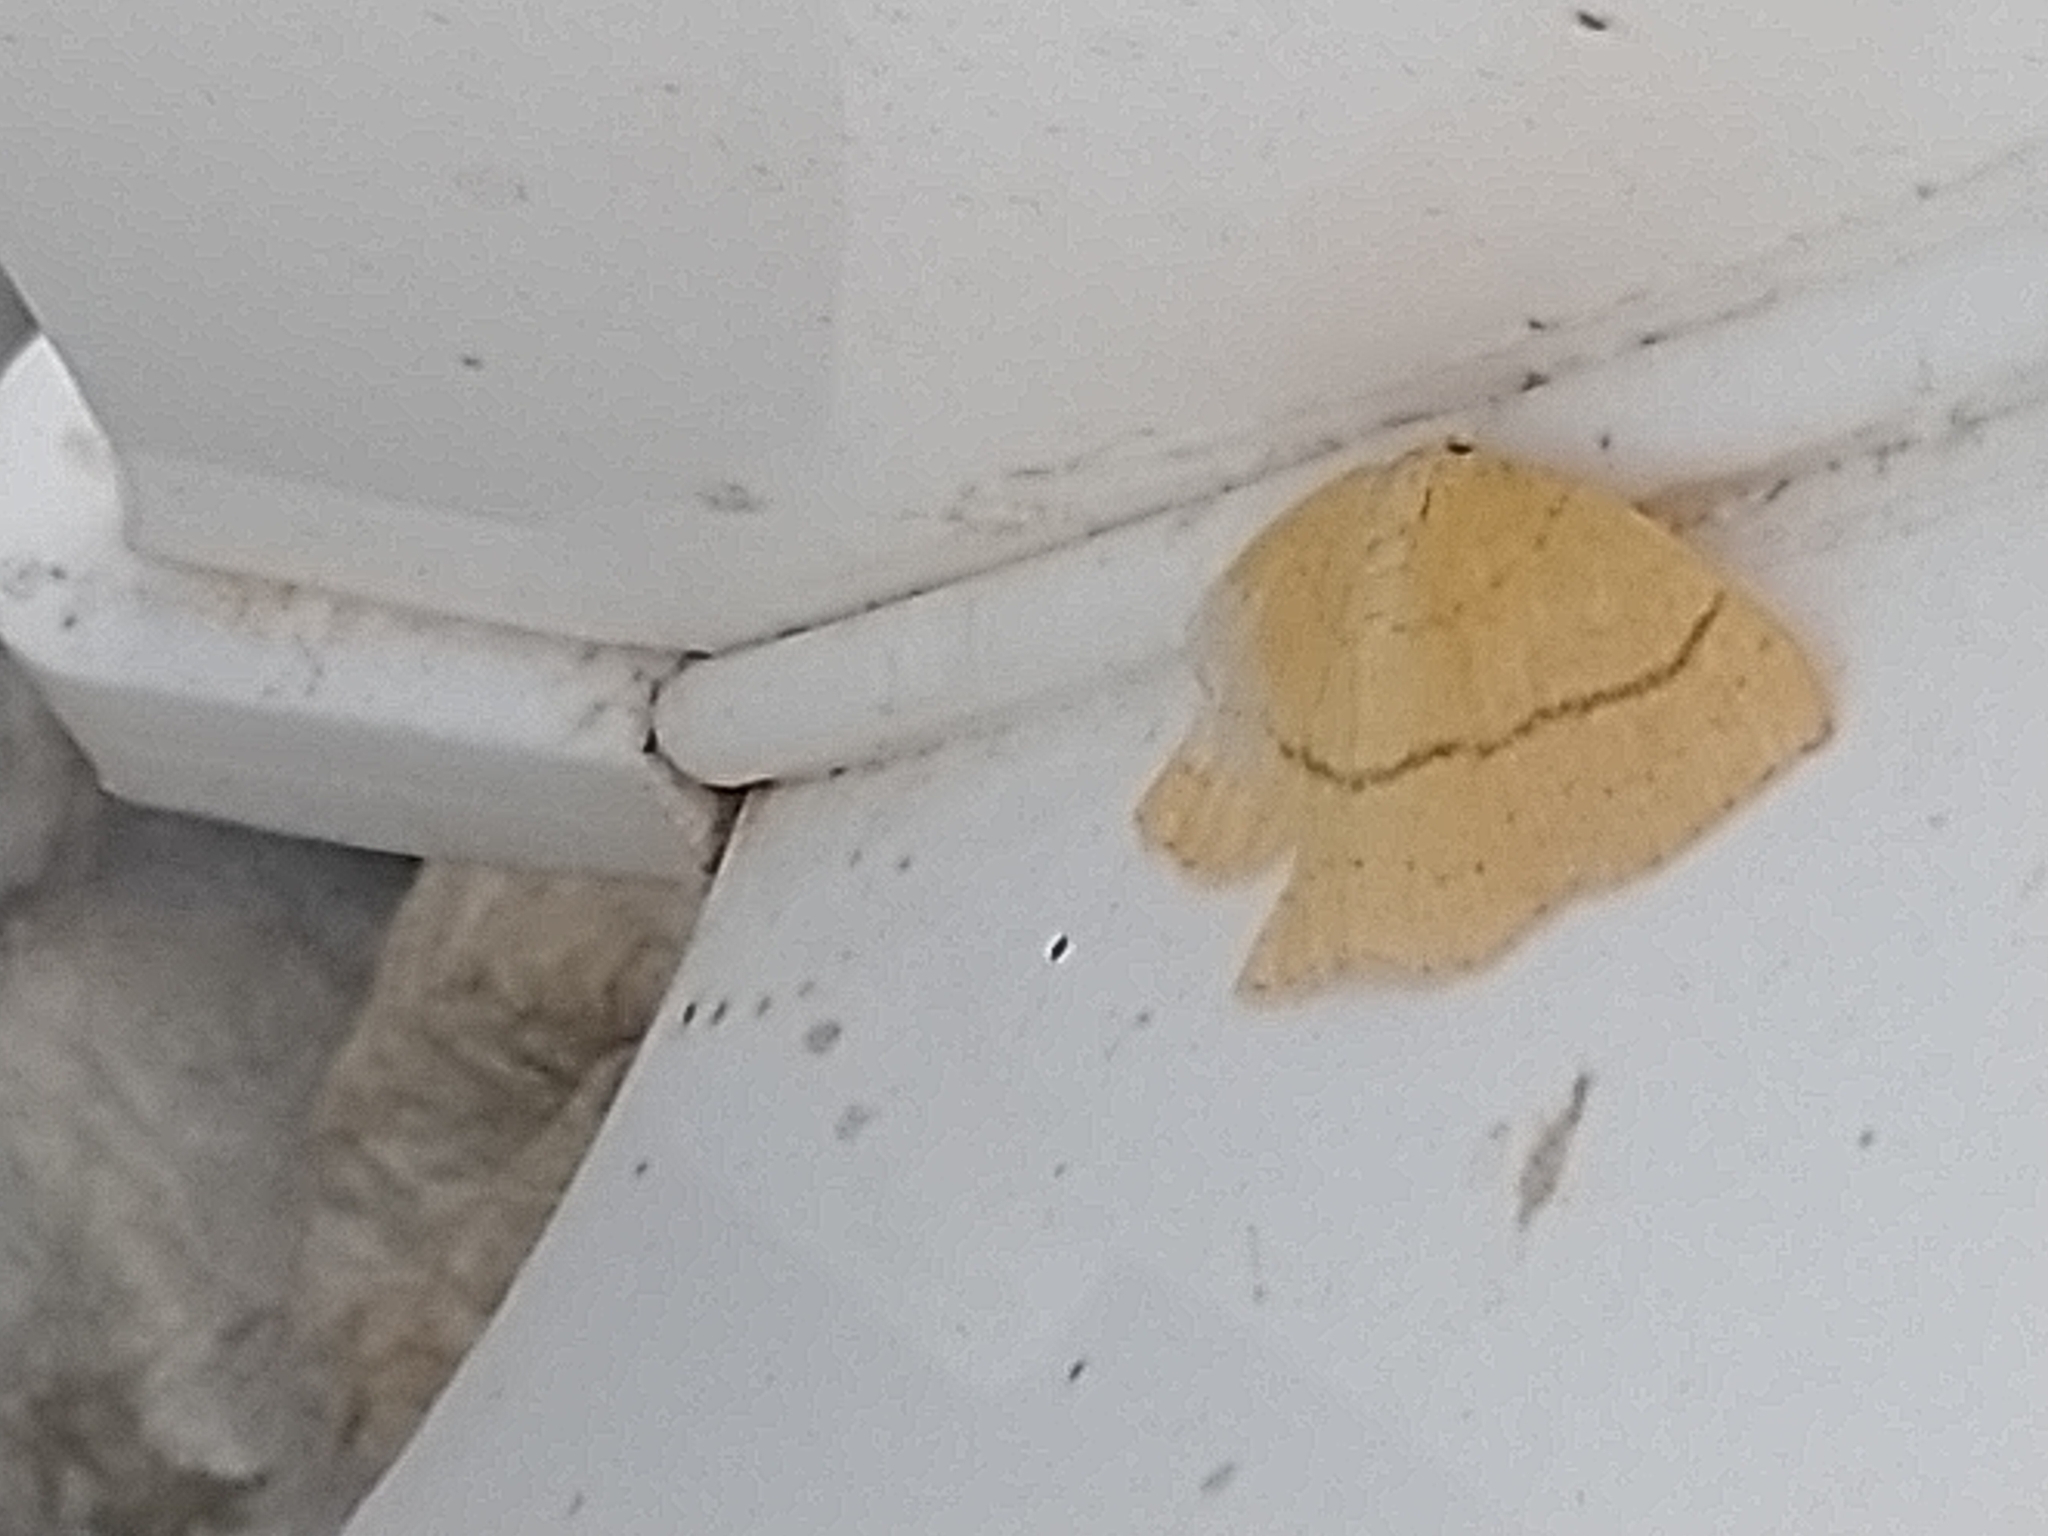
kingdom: Animalia
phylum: Arthropoda
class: Insecta
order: Lepidoptera
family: Geometridae
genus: Cyclophora
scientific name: Cyclophora linearia
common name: Clay triple-lines
